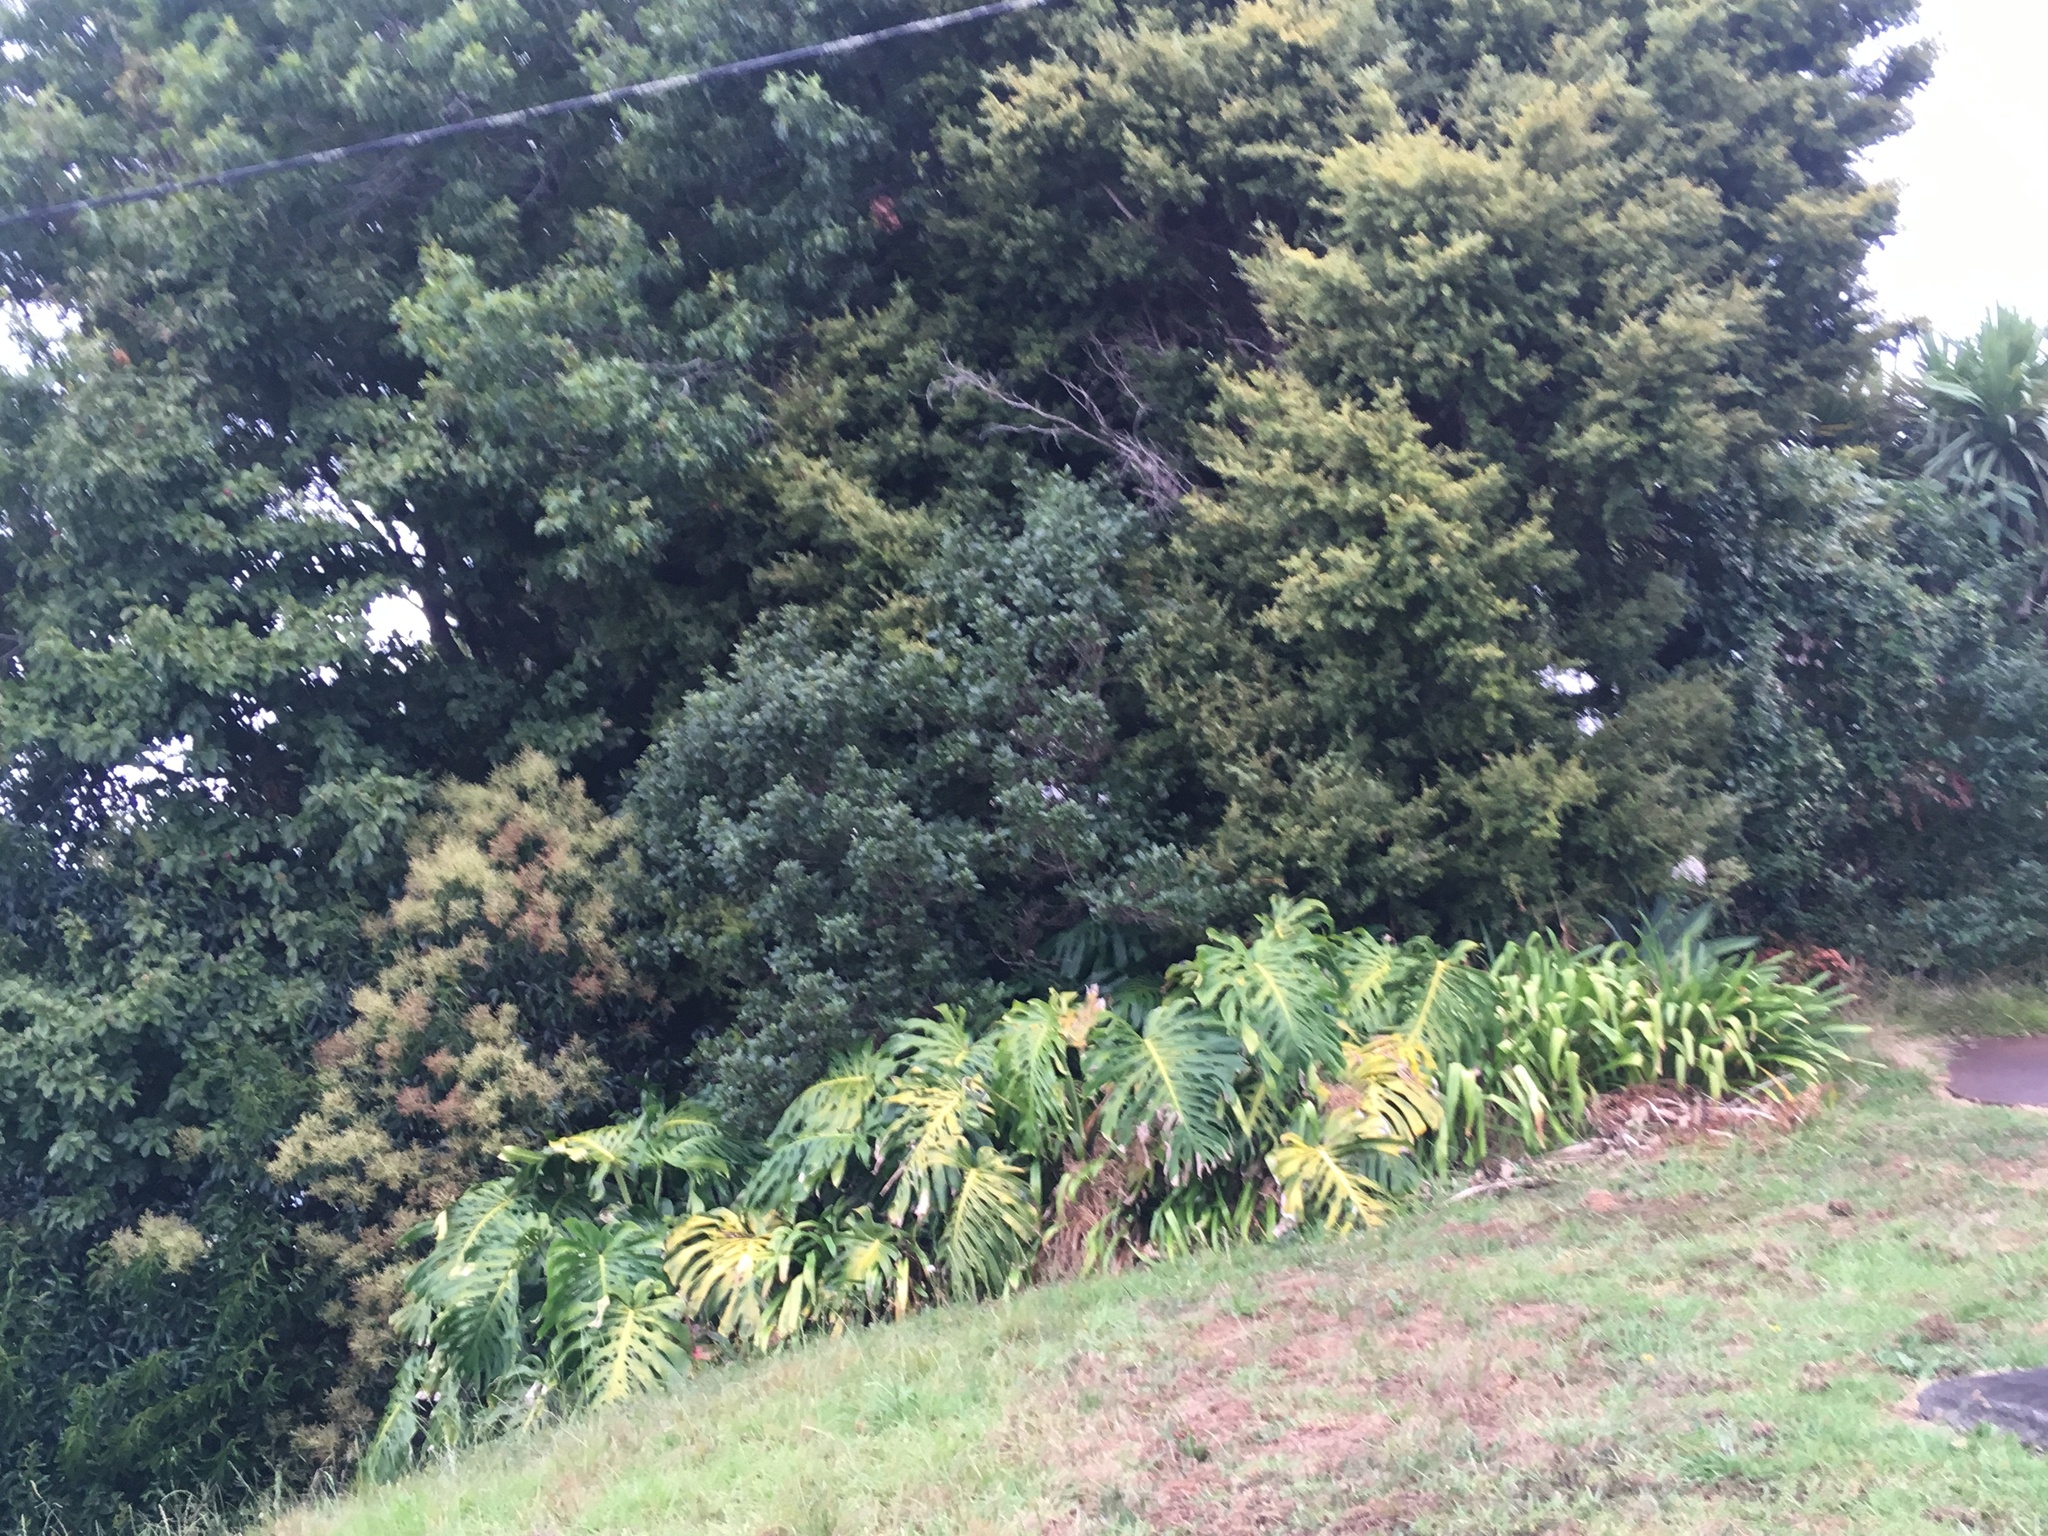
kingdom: Plantae
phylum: Tracheophyta
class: Liliopsida
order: Alismatales
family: Araceae
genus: Monstera
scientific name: Monstera deliciosa
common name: Cut-leaf-philodendron
